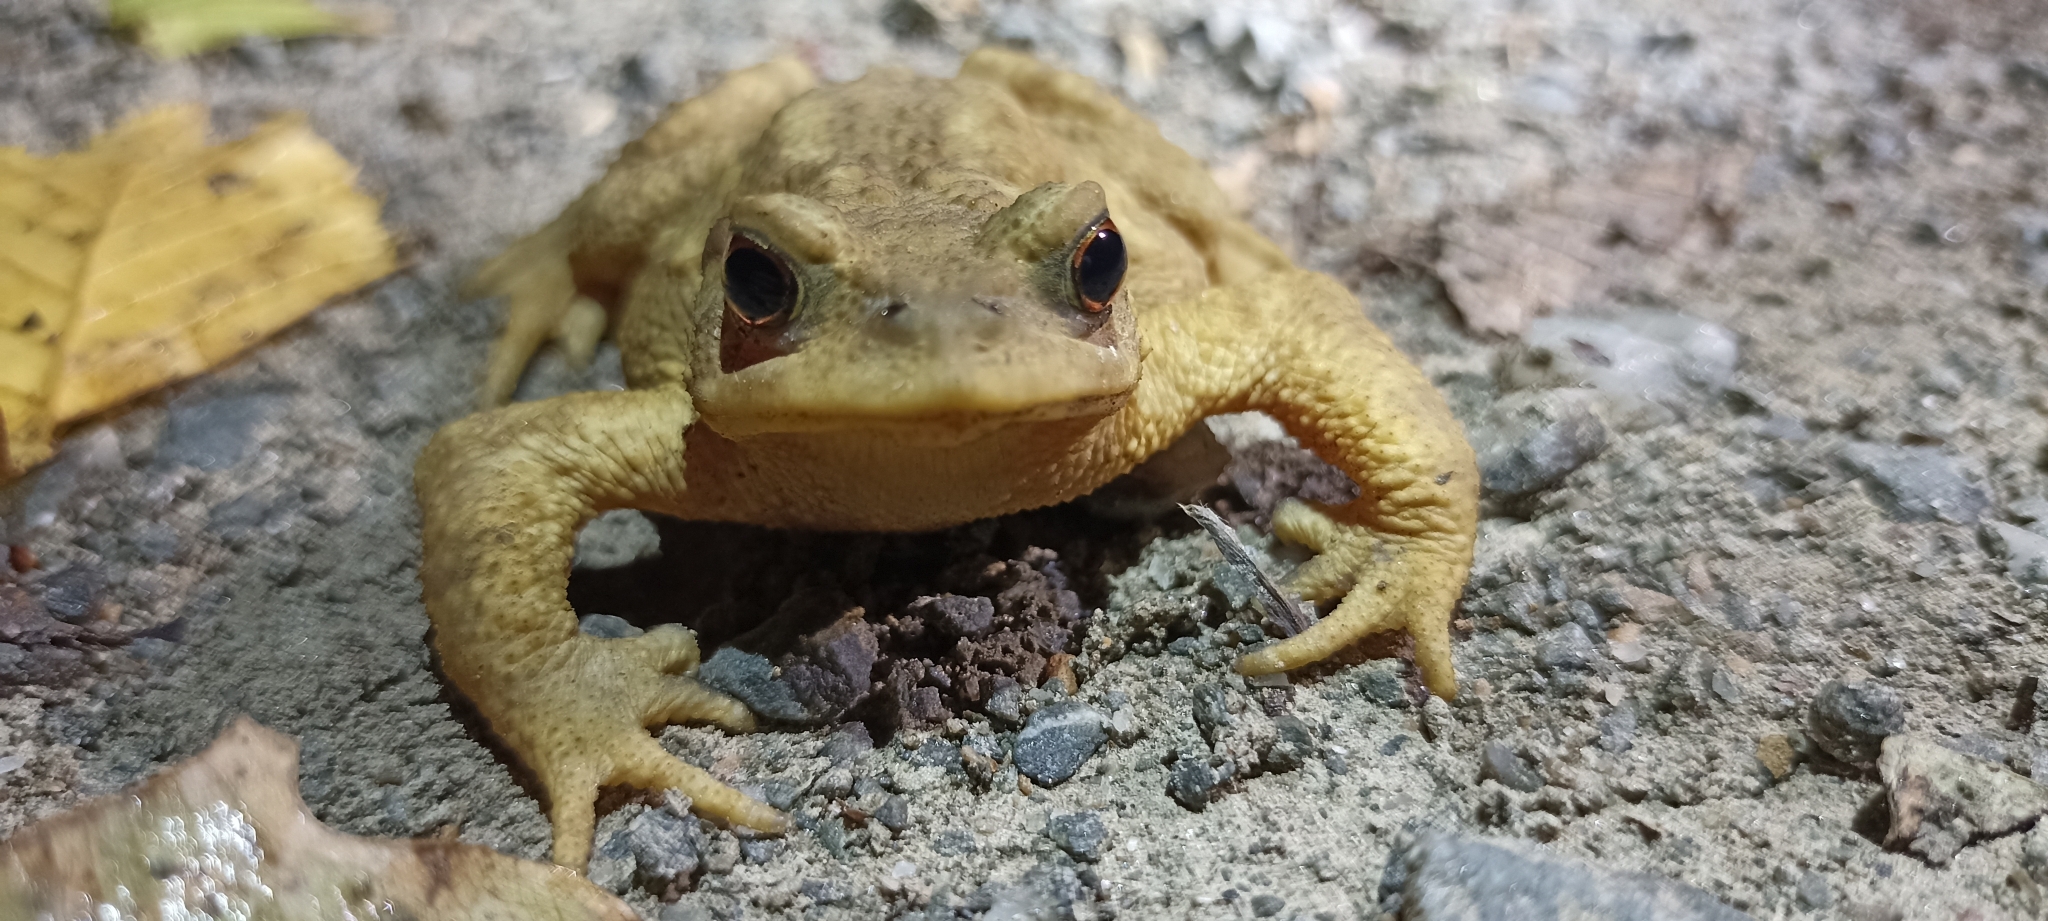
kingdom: Animalia
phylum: Chordata
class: Amphibia
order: Anura
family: Bufonidae
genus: Bufo
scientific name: Bufo spinosus
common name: Western common toad
